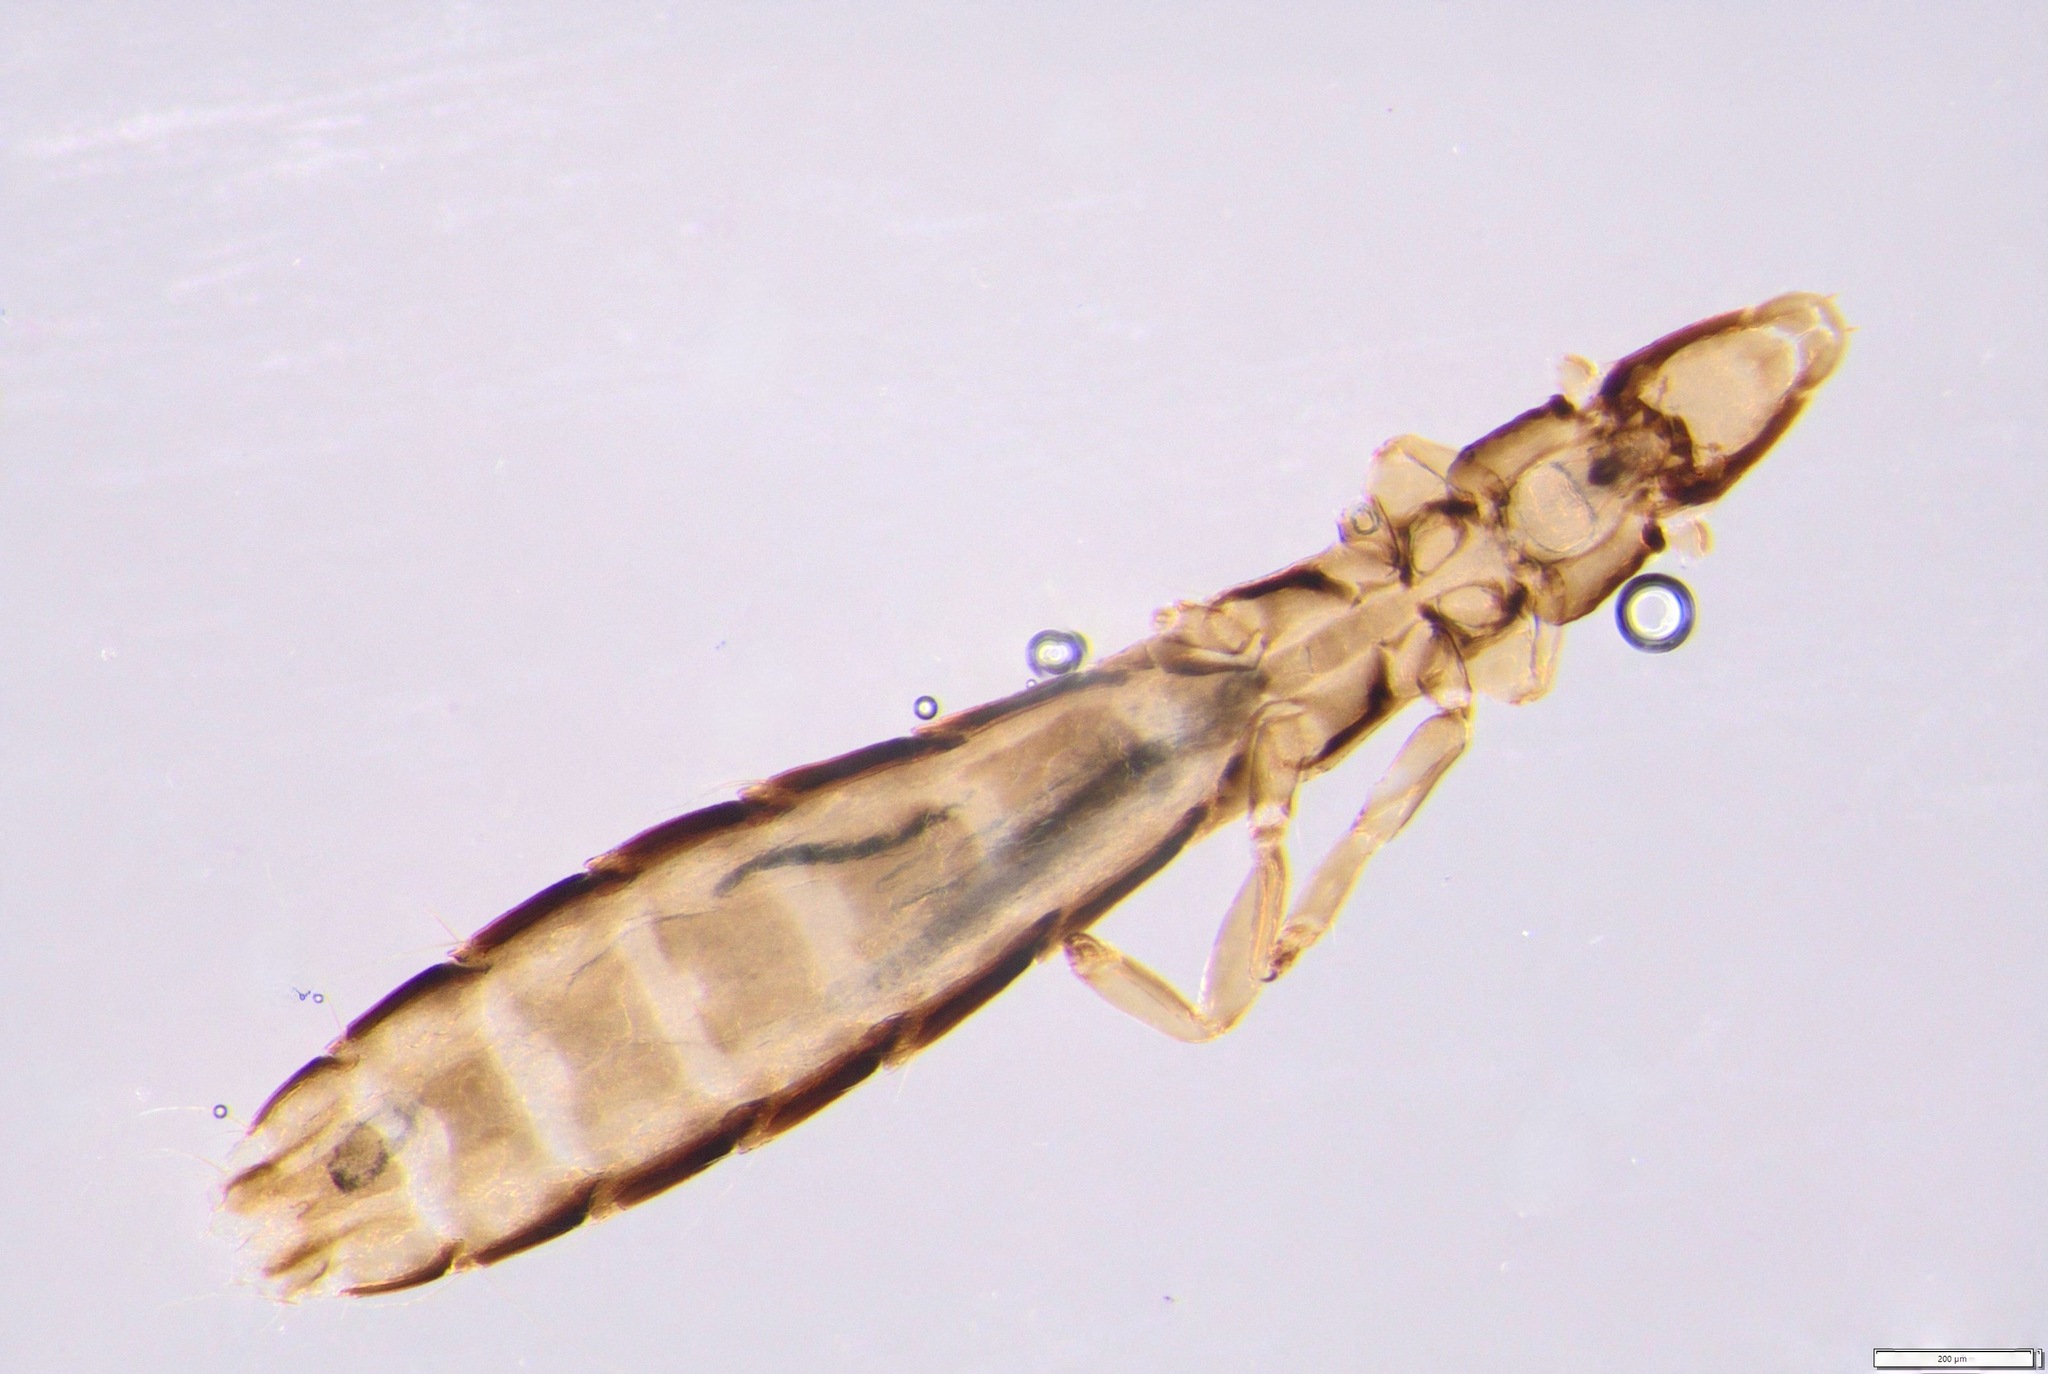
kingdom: Animalia
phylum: Arthropoda
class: Insecta
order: Psocodea
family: Philopteridae
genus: Columbicola
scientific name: Columbicola columbae
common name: Louse
